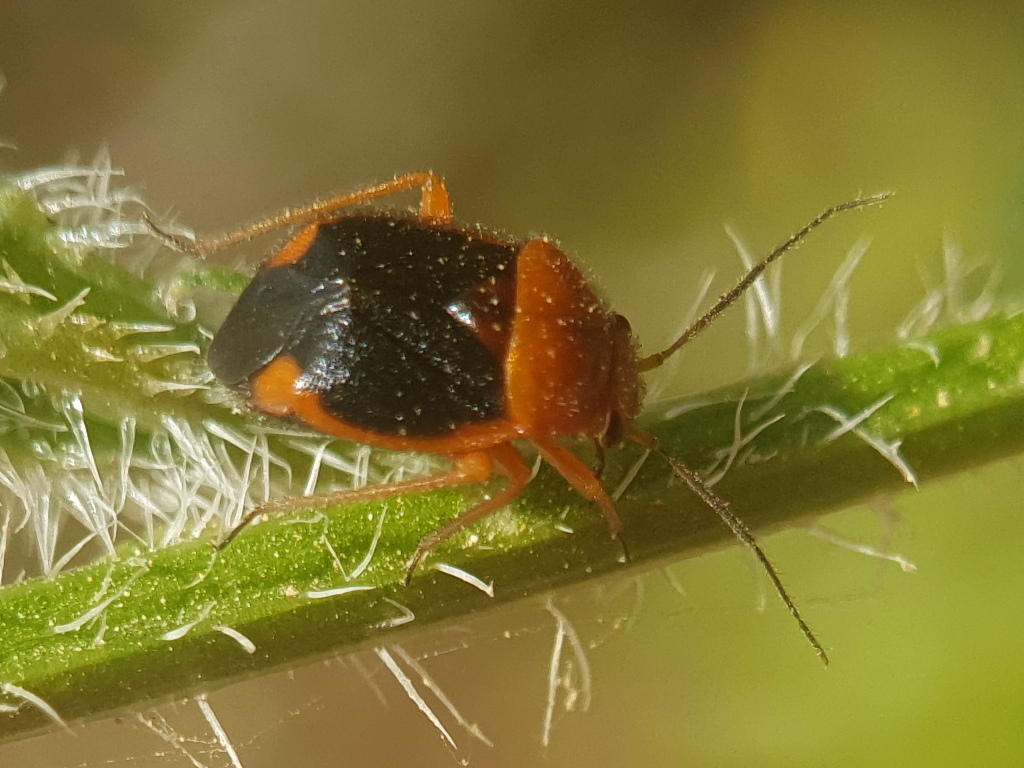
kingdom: Animalia
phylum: Arthropoda
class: Insecta
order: Hemiptera
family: Miridae
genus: Strongylocoris
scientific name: Strongylocoris amabilis
